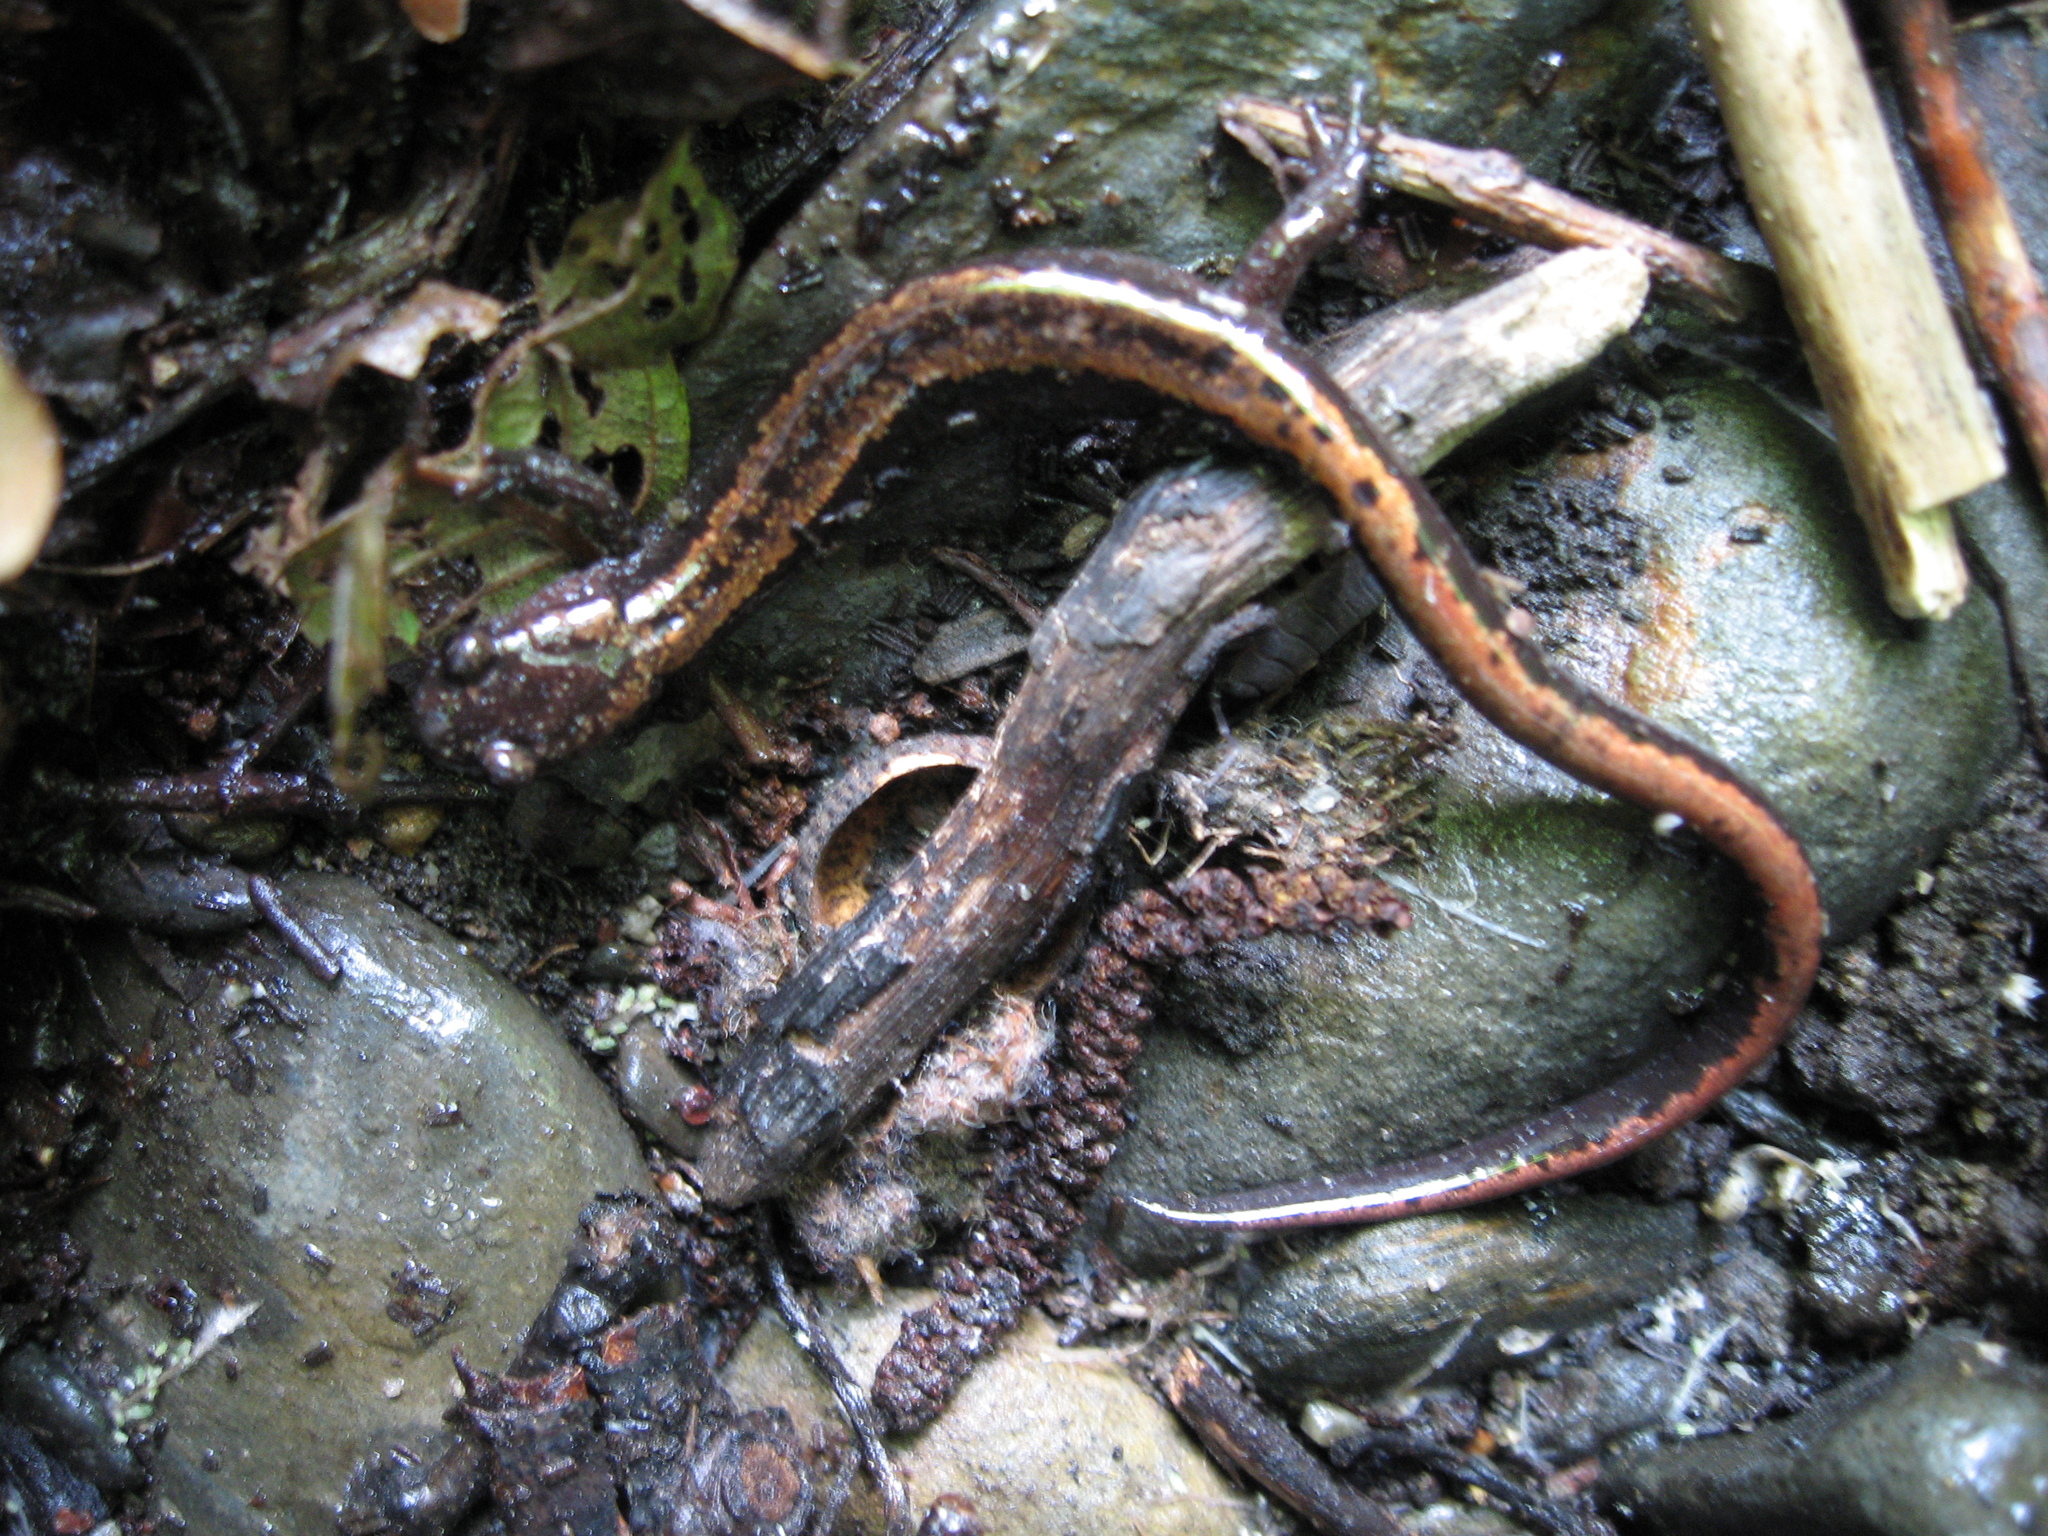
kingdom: Animalia
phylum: Chordata
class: Amphibia
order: Caudata
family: Salamandridae
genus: Chioglossa
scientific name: Chioglossa lusitanica
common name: Gold-striped salamander
